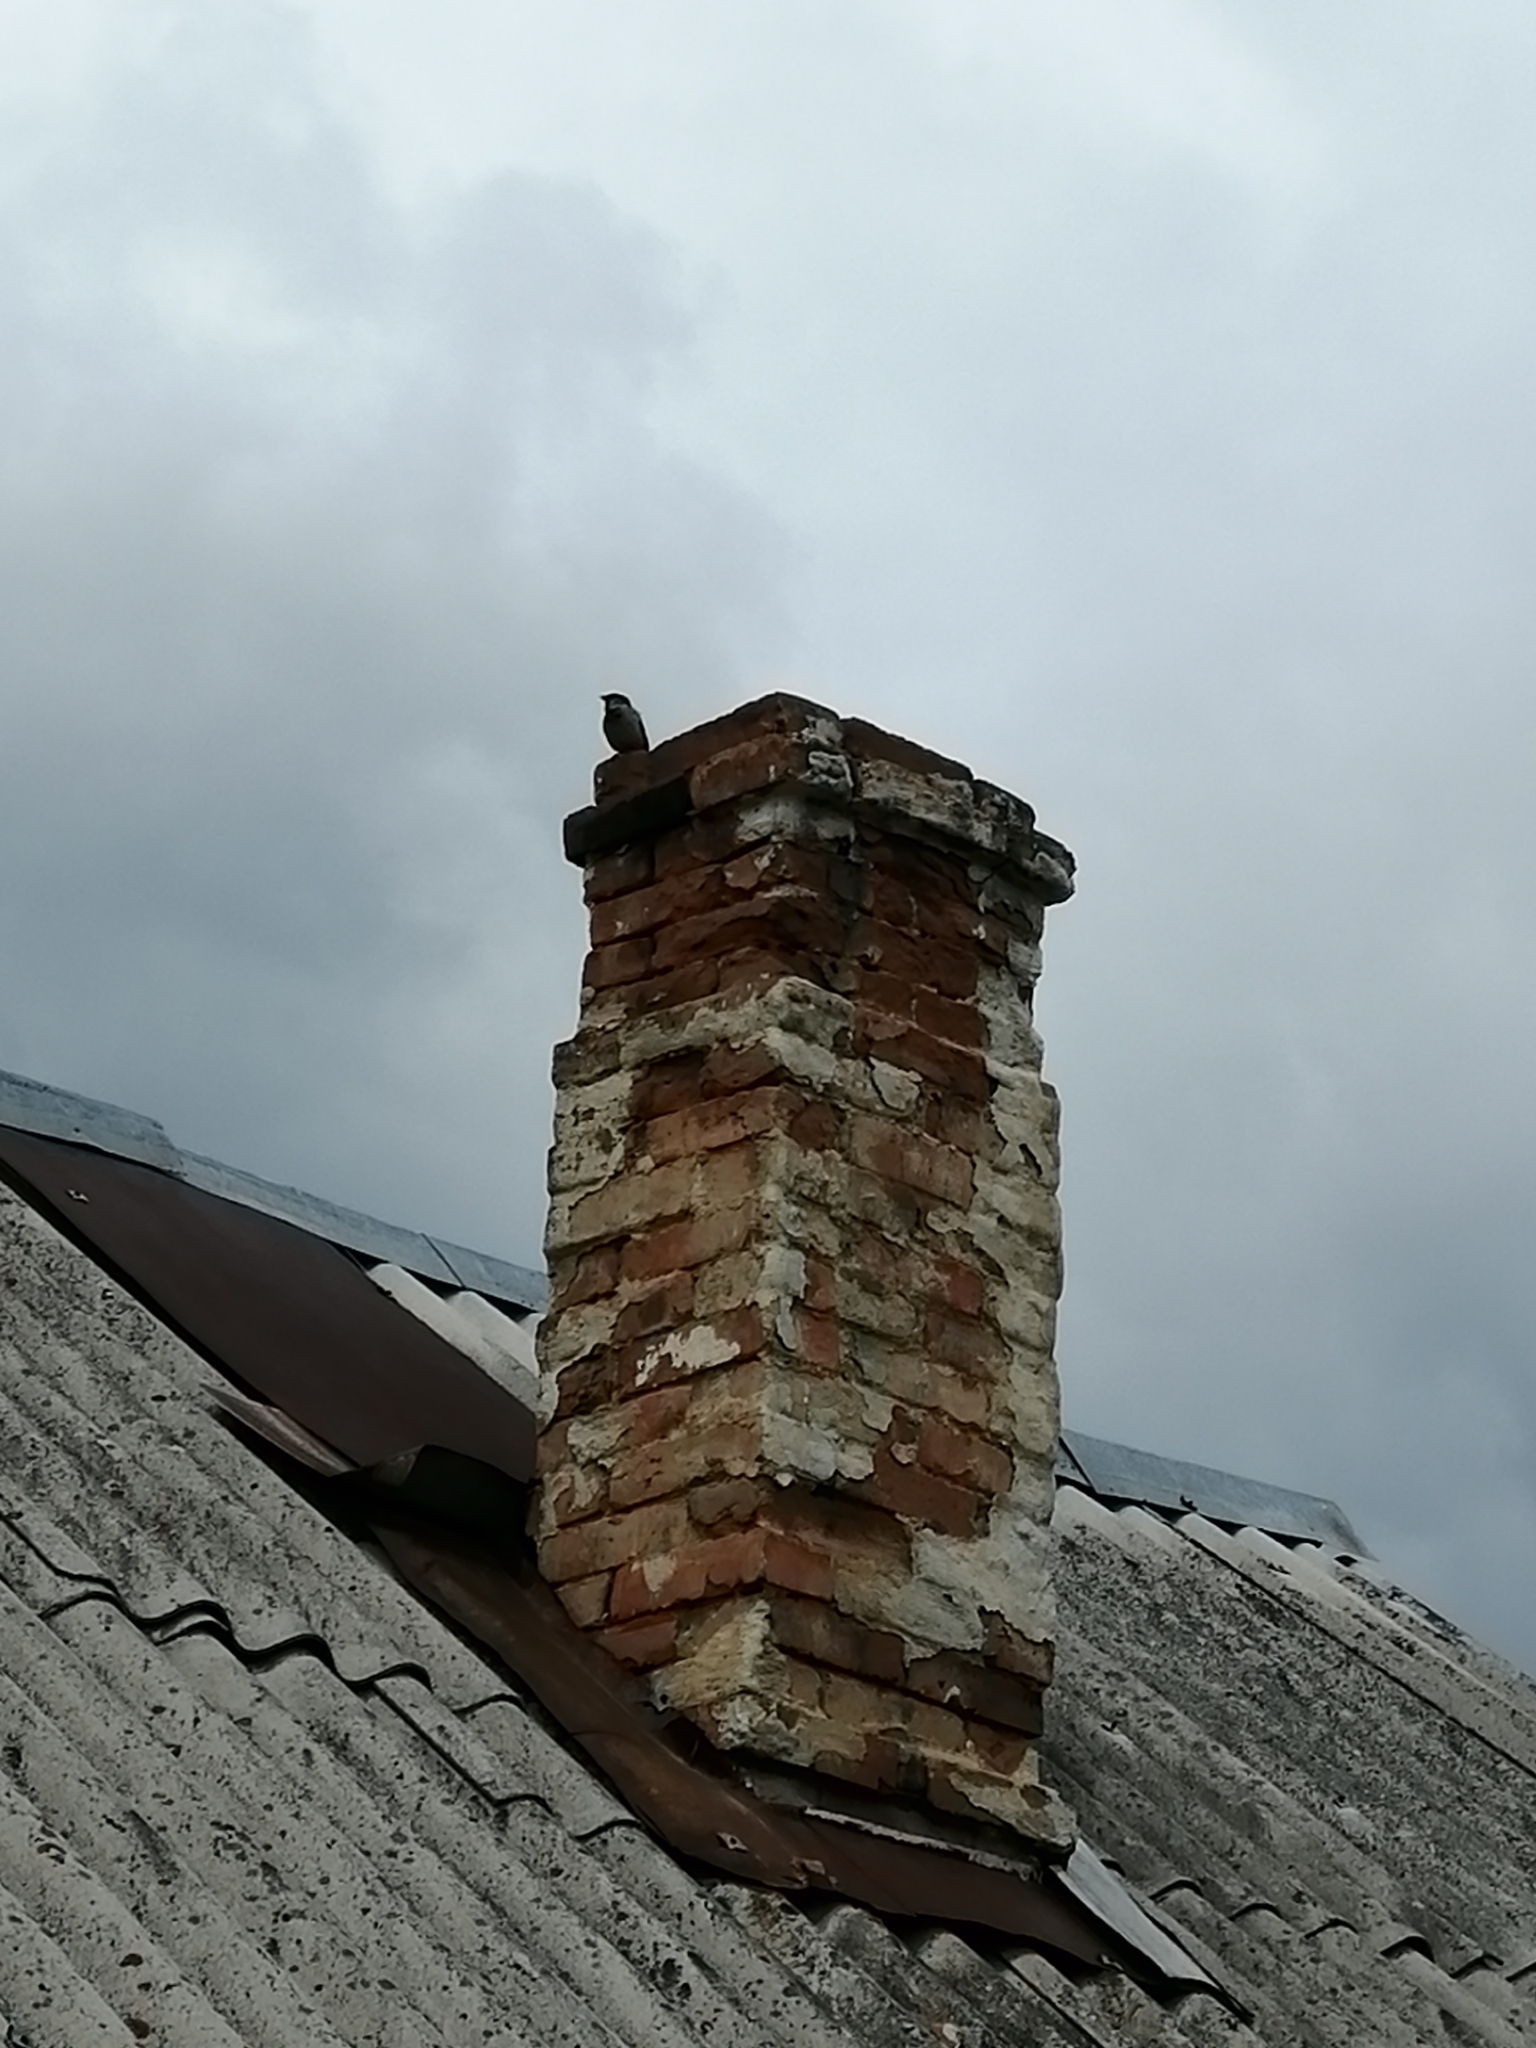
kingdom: Animalia
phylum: Chordata
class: Aves
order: Passeriformes
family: Passeridae
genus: Passer
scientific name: Passer domesticus
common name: House sparrow
